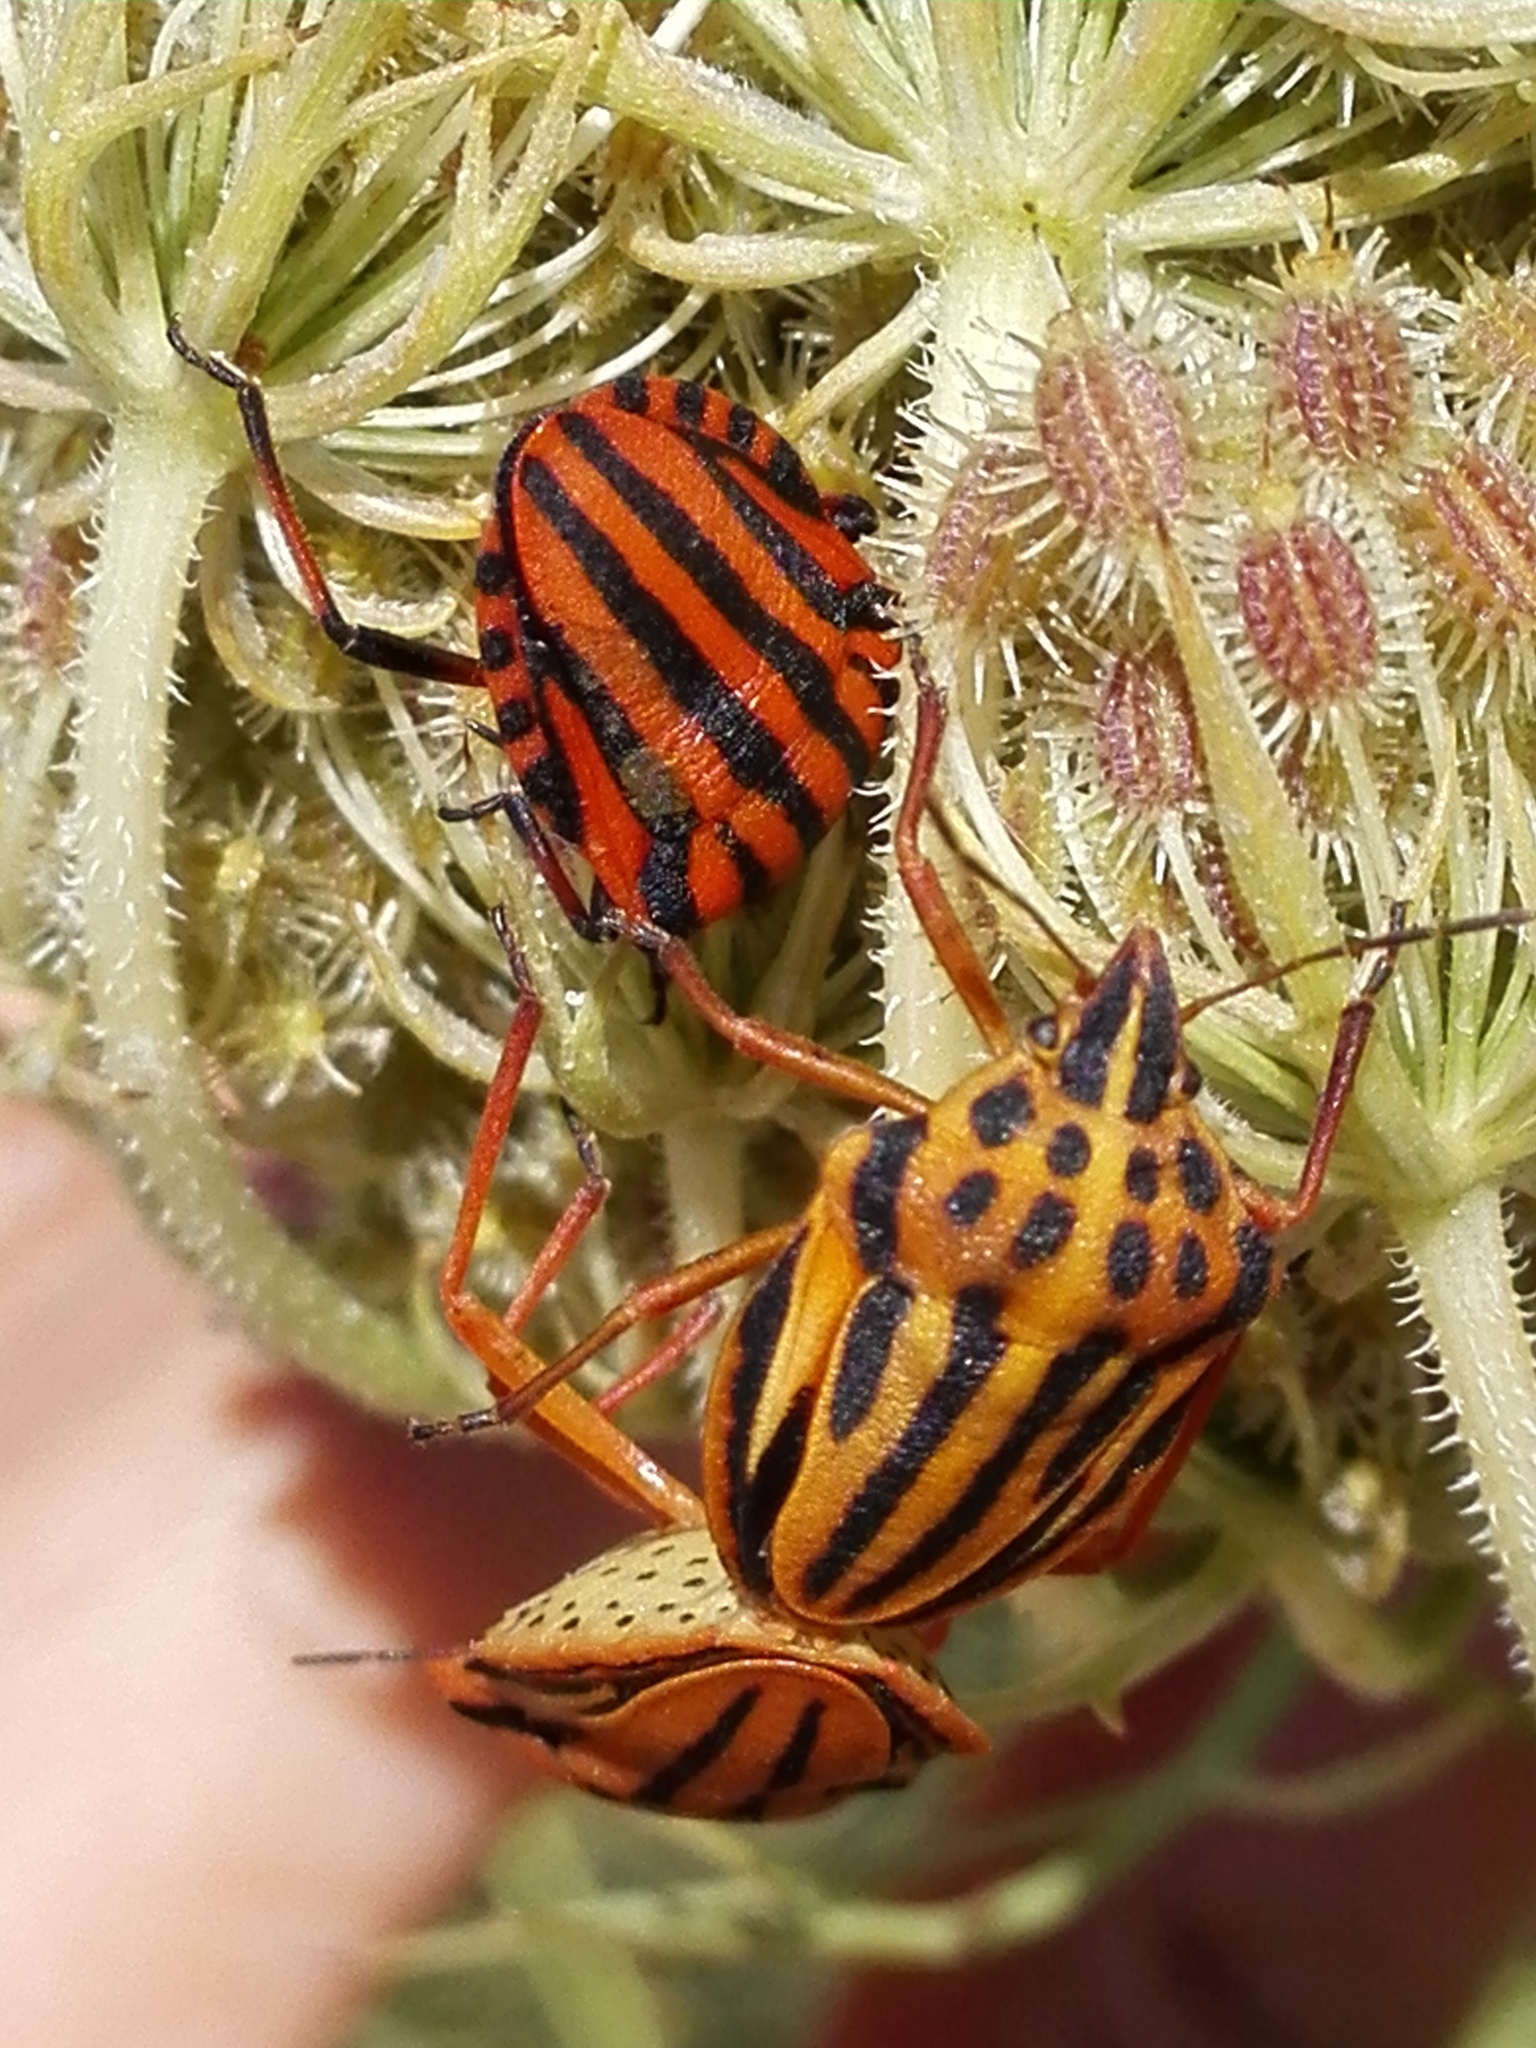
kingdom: Animalia
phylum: Arthropoda
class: Insecta
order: Hemiptera
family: Pentatomidae
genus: Graphosoma
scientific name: Graphosoma semipunctatum
